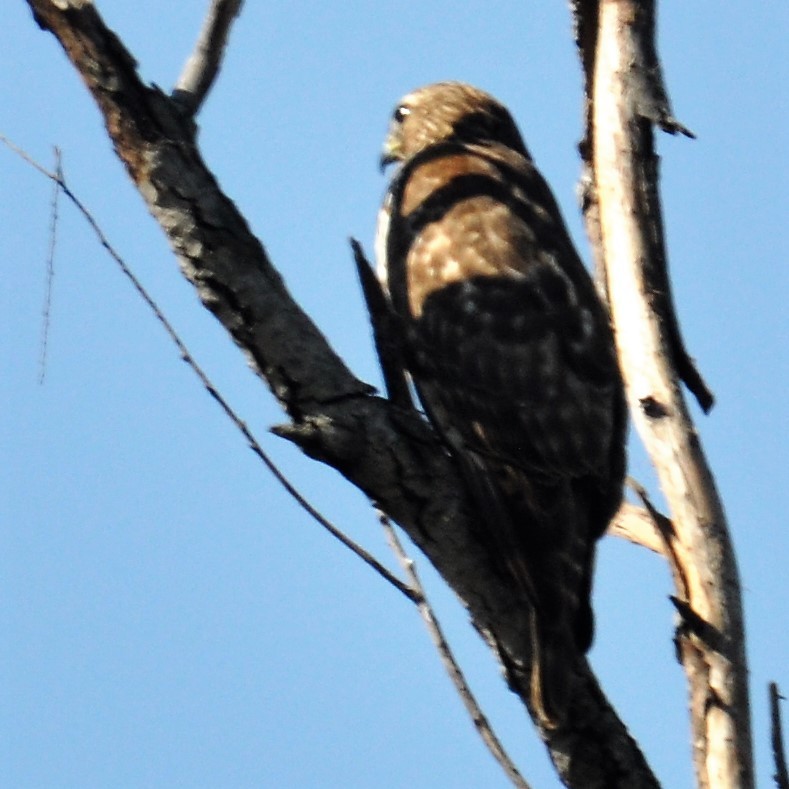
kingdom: Animalia
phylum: Chordata
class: Aves
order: Accipitriformes
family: Accipitridae
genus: Buteo
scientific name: Buteo lineatus
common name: Red-shouldered hawk
